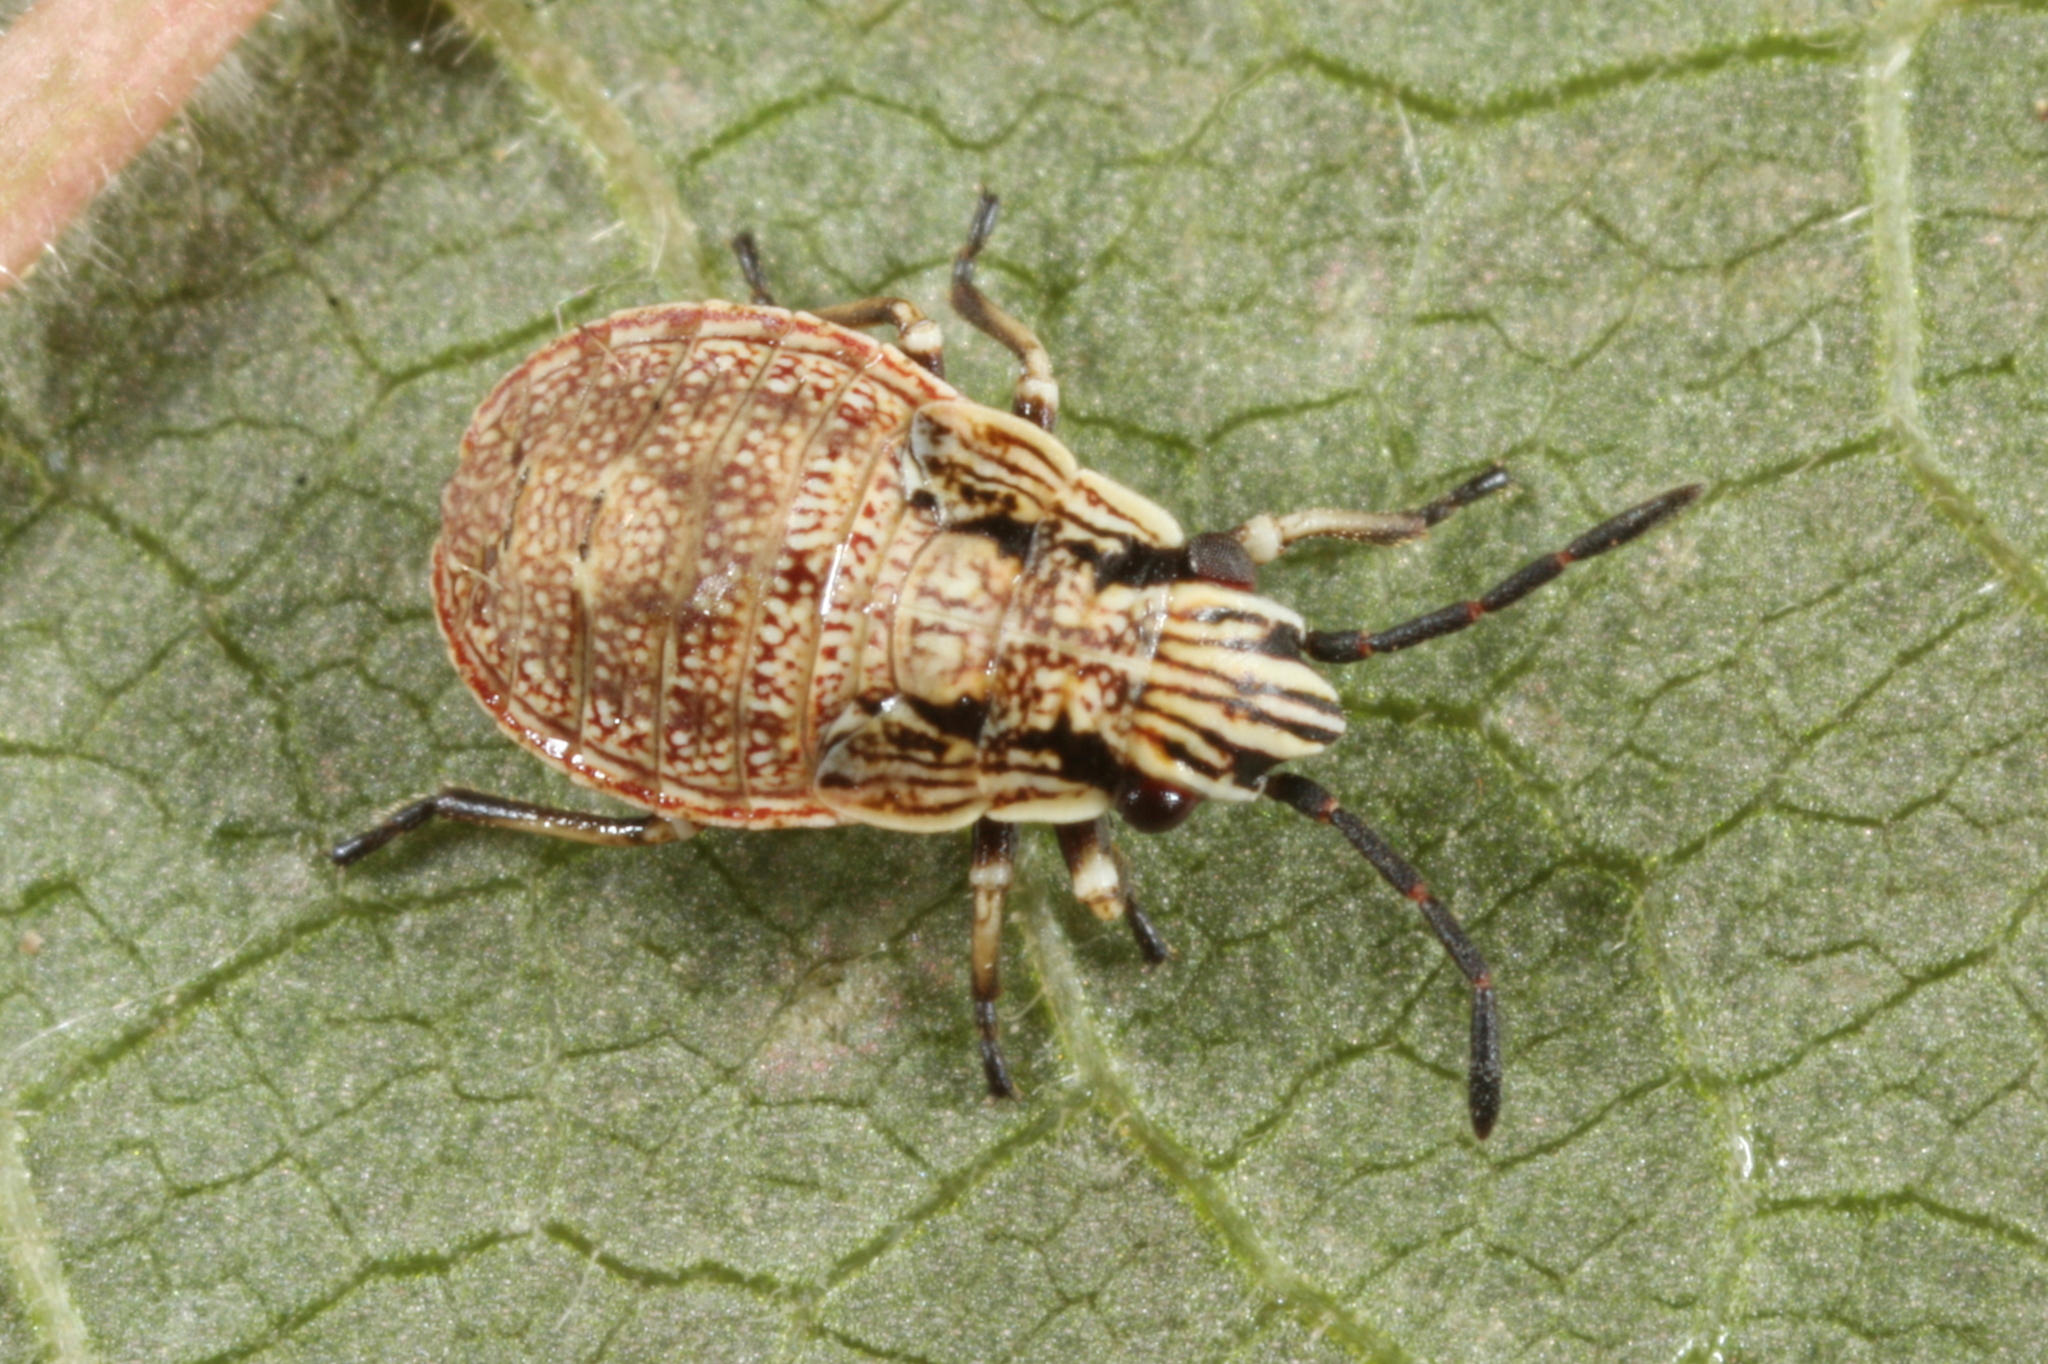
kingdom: Animalia
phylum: Arthropoda
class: Insecta
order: Hemiptera
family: Lygaeidae
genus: Nithecus
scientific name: Nithecus jacobaeae
